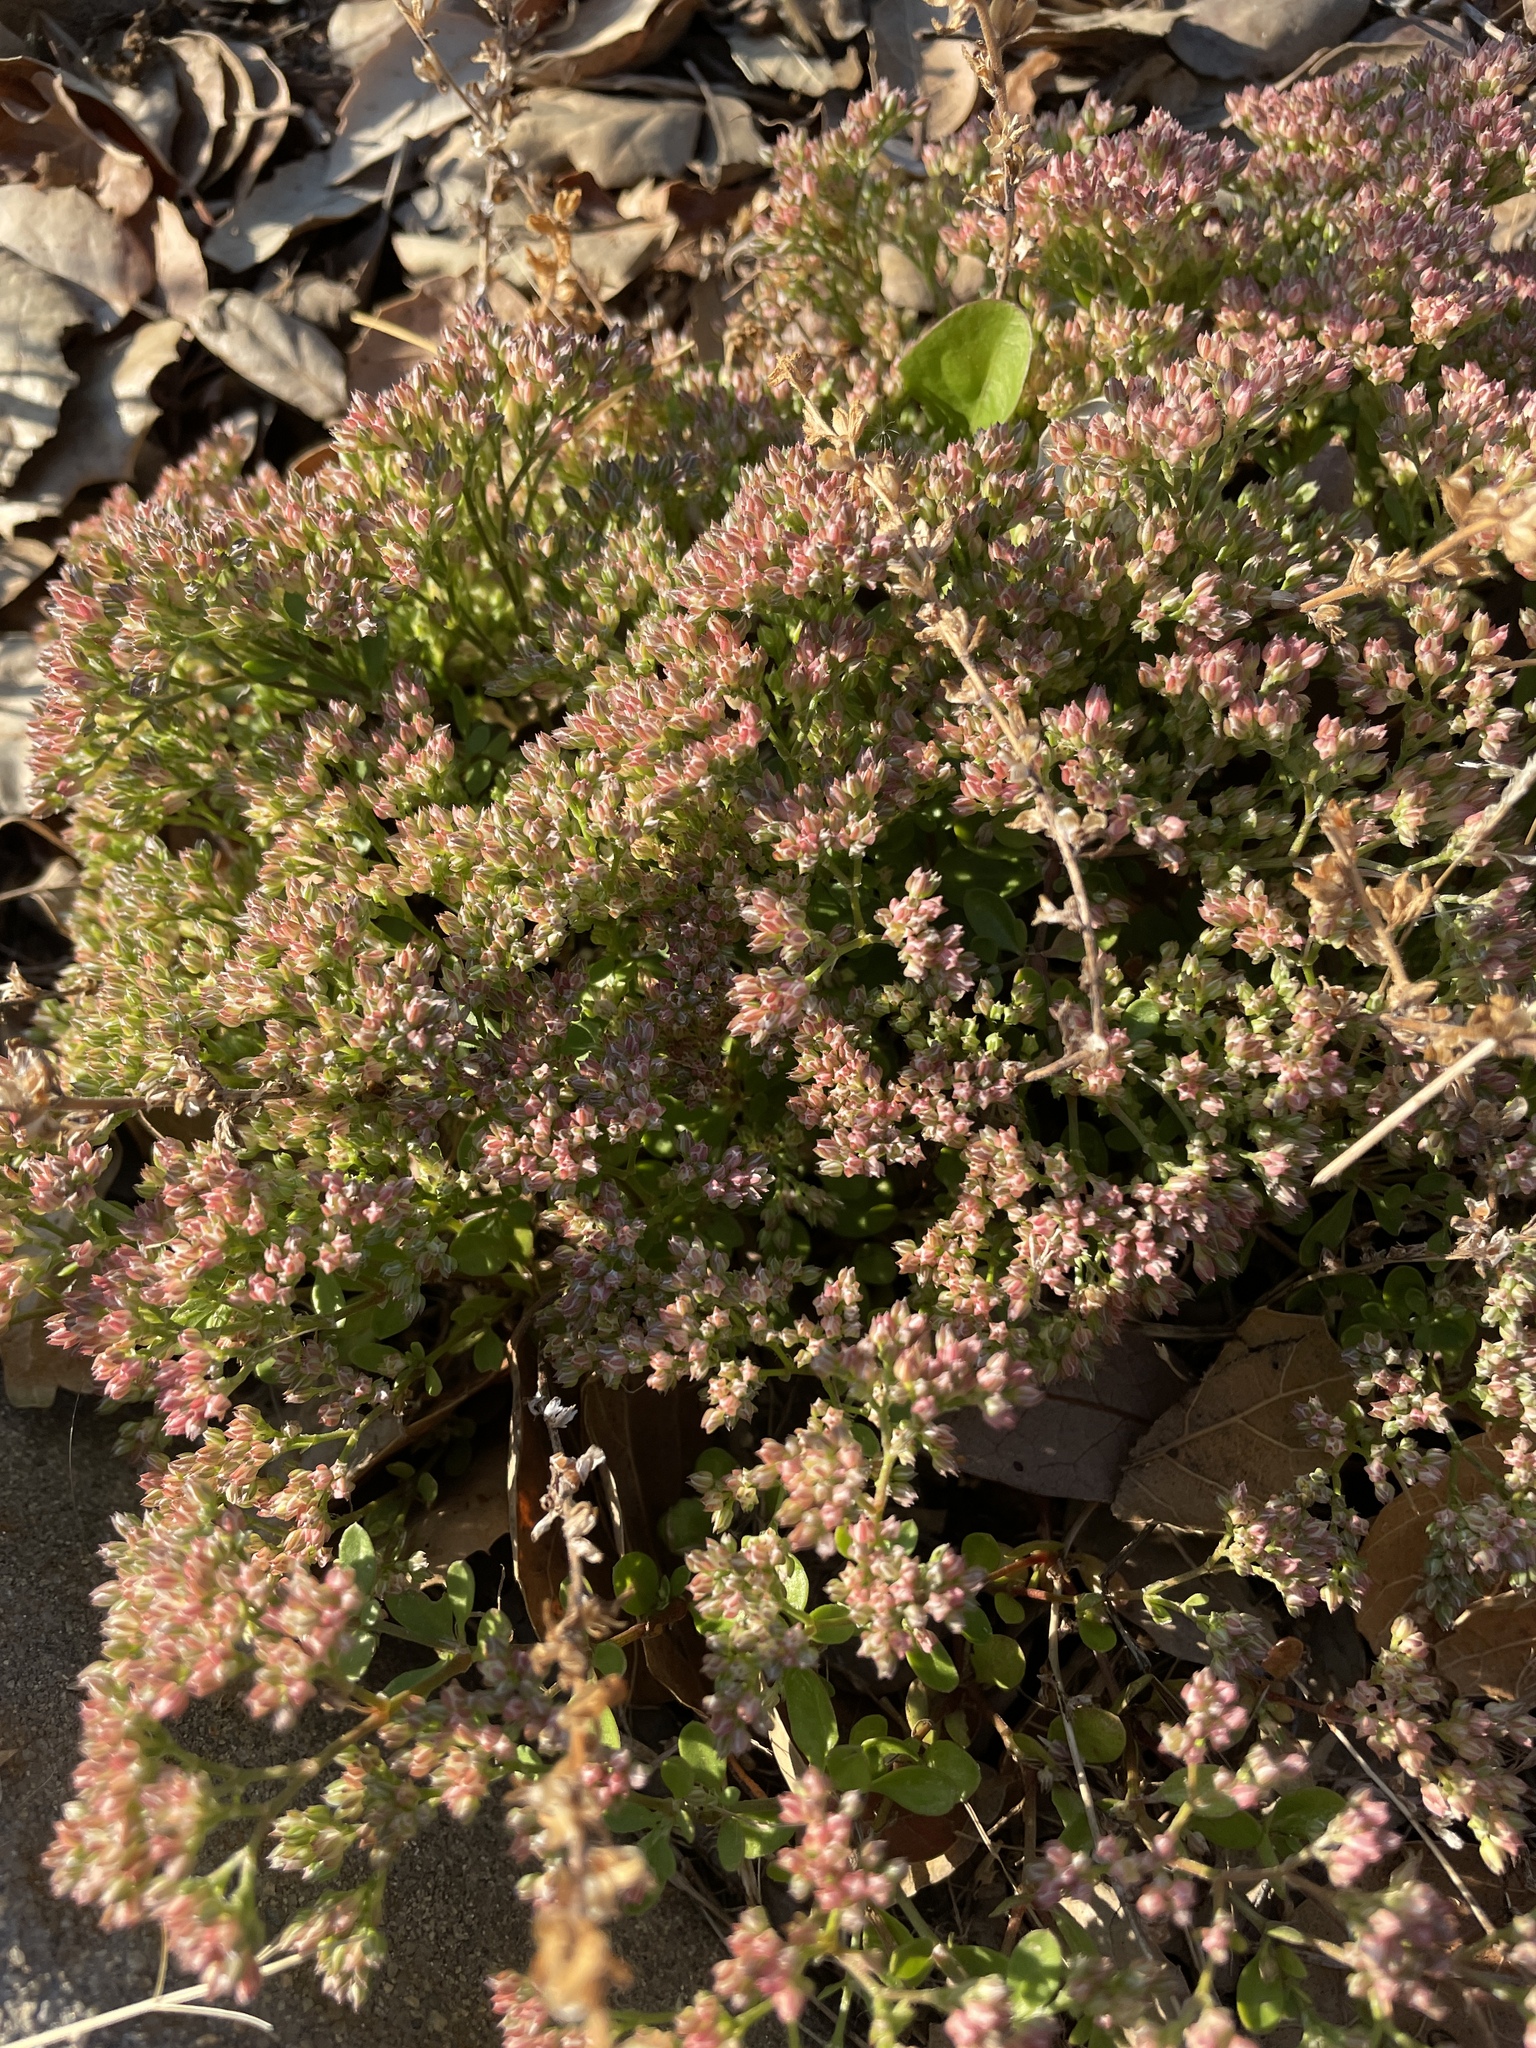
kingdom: Plantae
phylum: Tracheophyta
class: Magnoliopsida
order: Caryophyllales
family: Caryophyllaceae
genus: Polycarpon
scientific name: Polycarpon tetraphyllum
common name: Four-leaved all-seed
